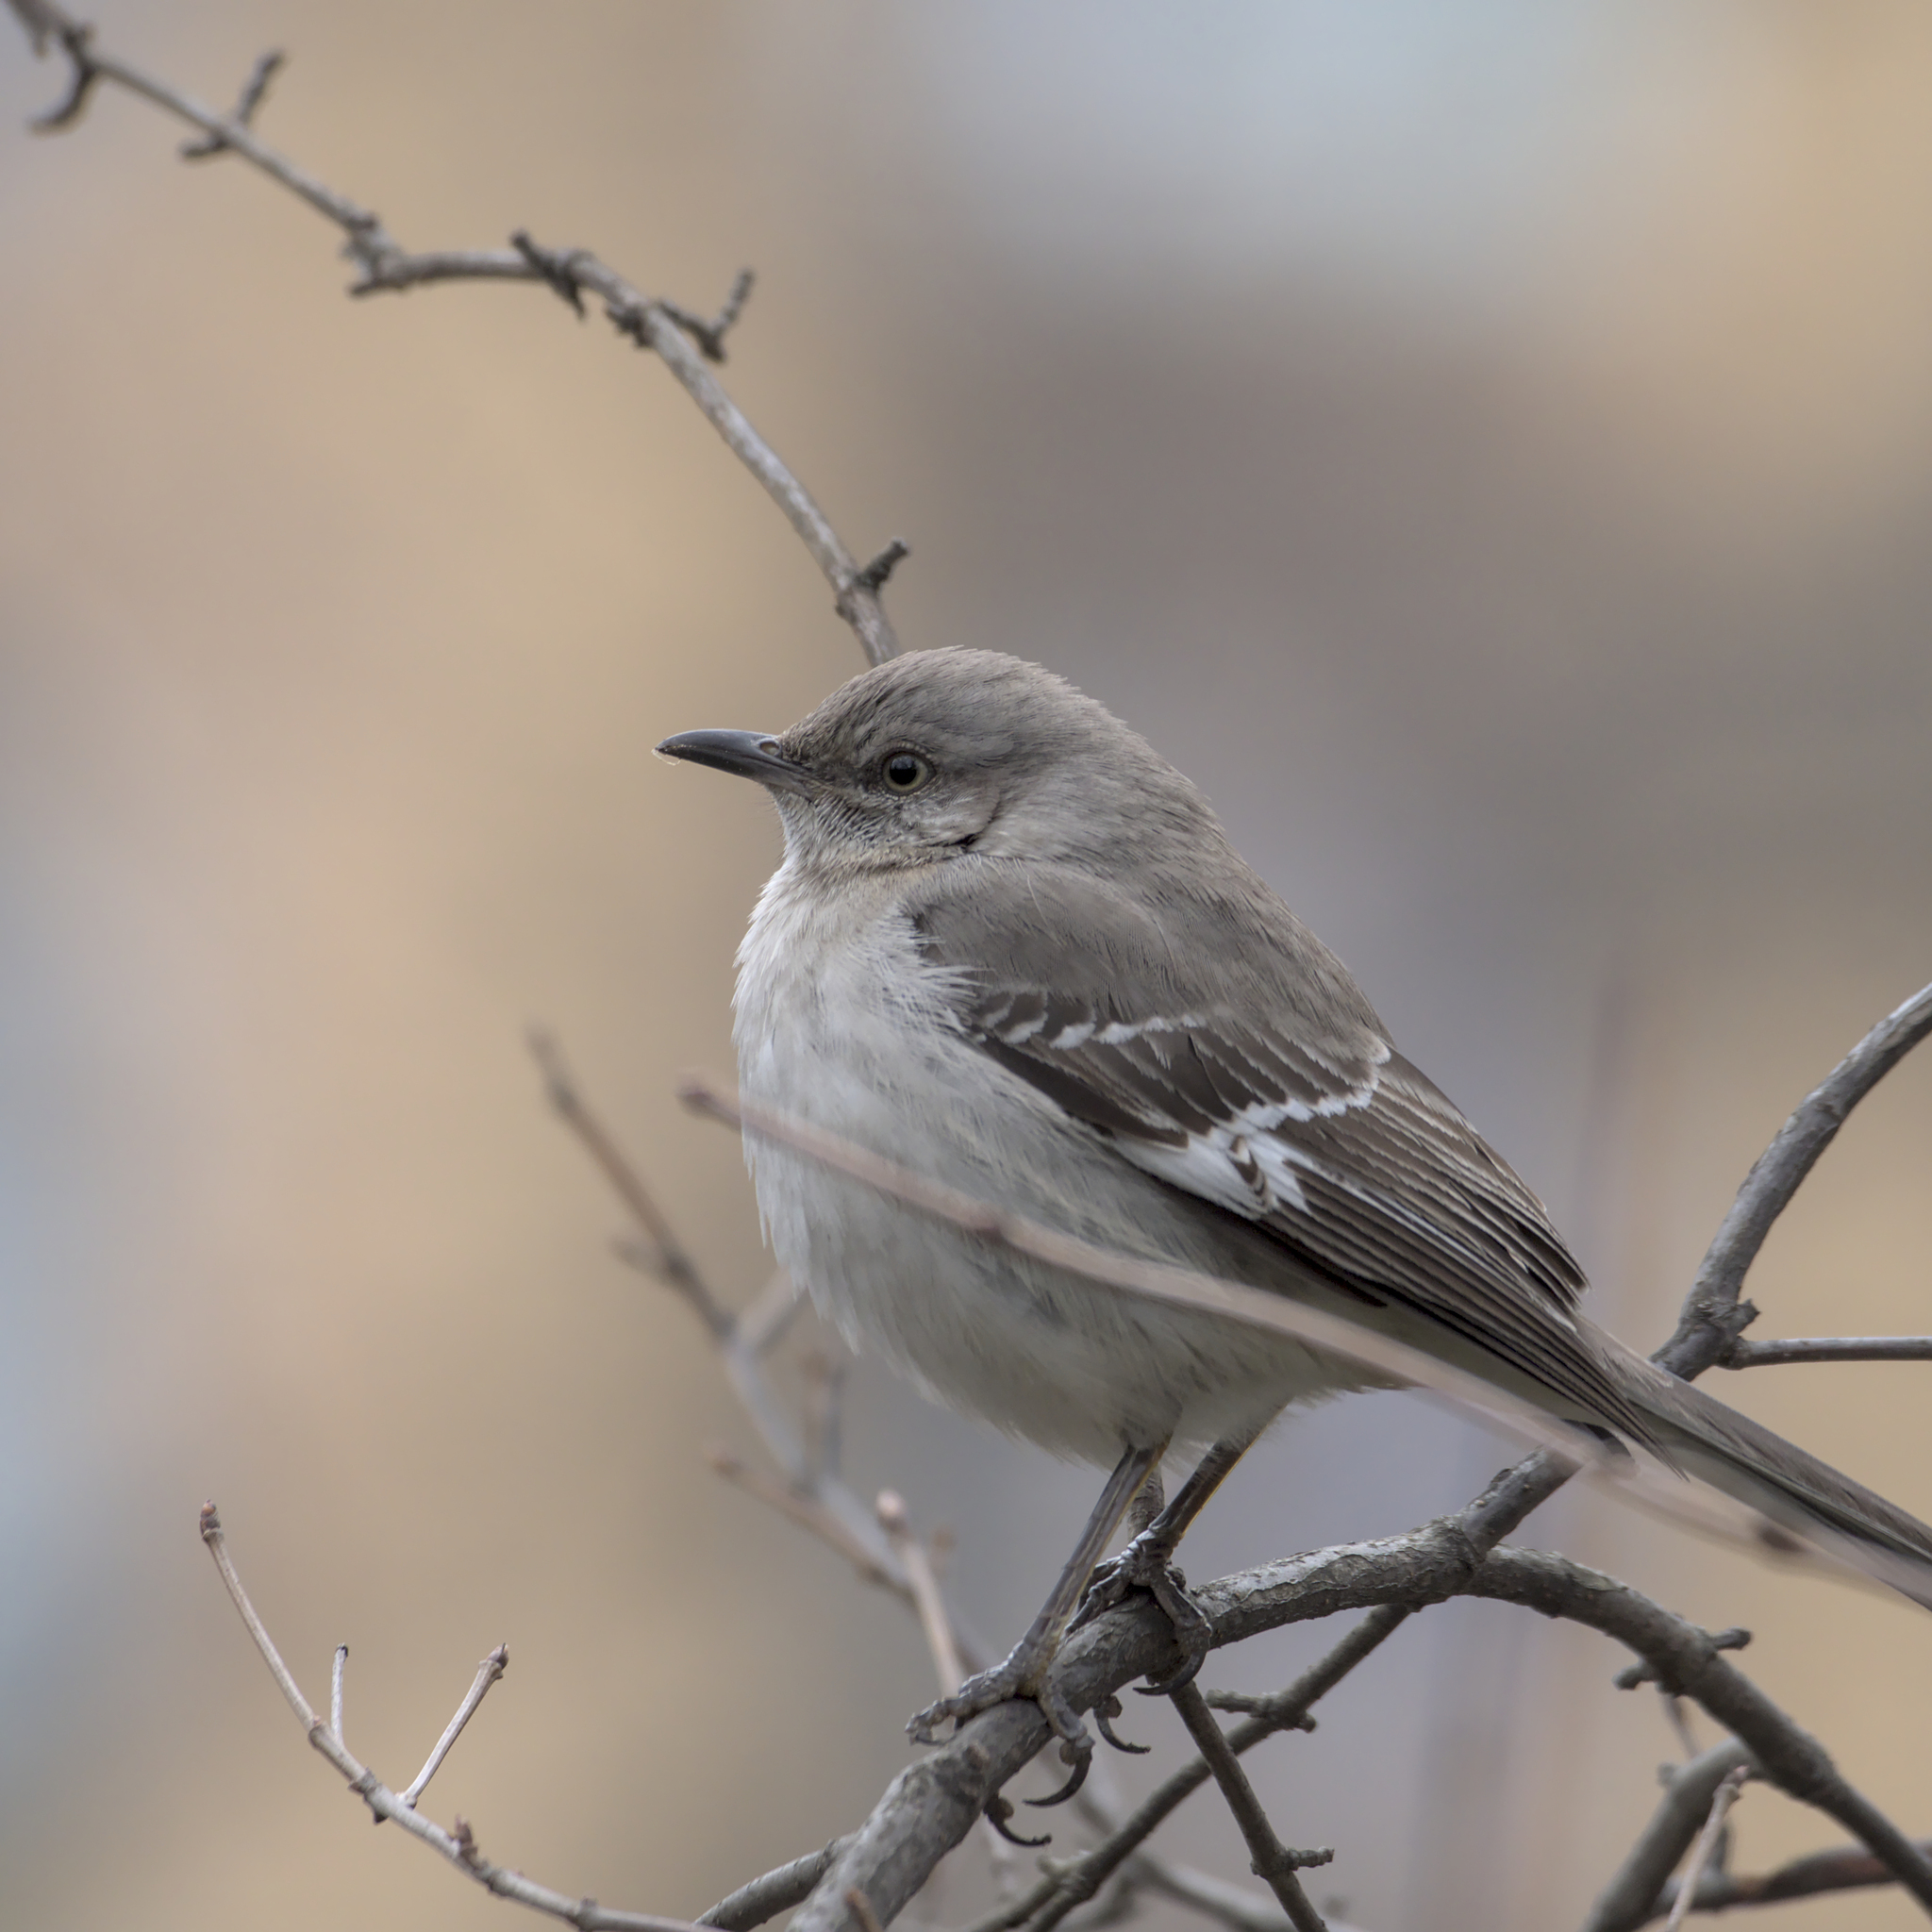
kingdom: Animalia
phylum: Chordata
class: Aves
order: Passeriformes
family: Mimidae
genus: Mimus
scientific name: Mimus polyglottos
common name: Northern mockingbird
